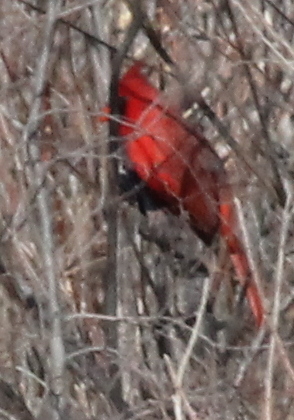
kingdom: Animalia
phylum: Chordata
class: Aves
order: Passeriformes
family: Cardinalidae
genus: Cardinalis
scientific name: Cardinalis cardinalis
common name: Northern cardinal
